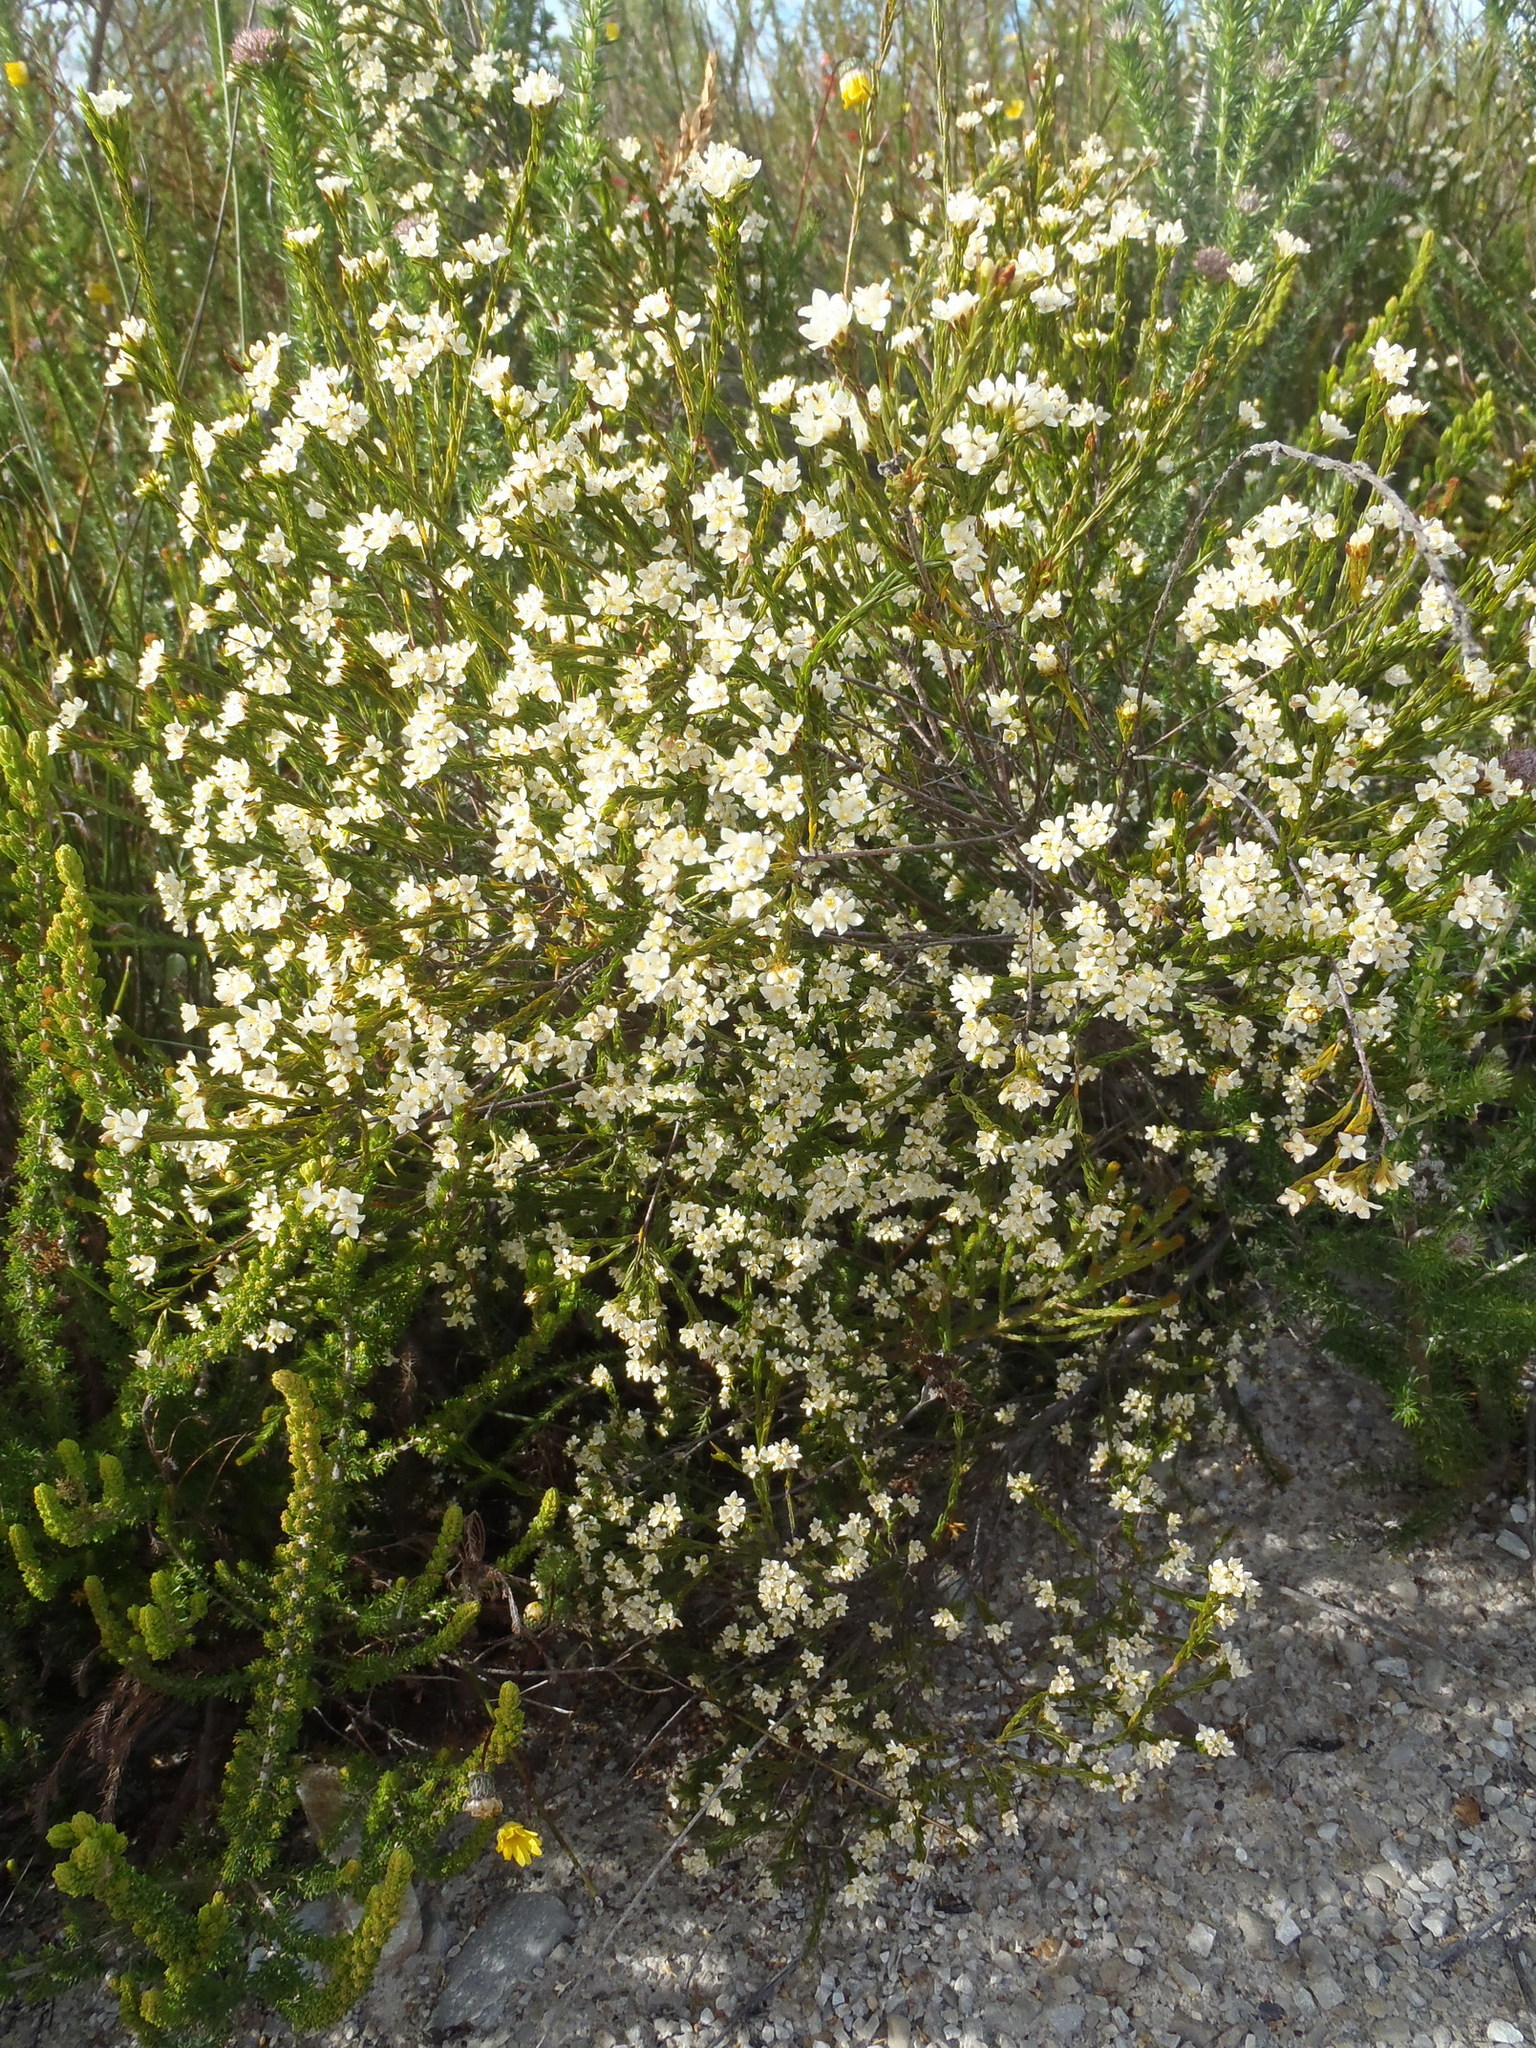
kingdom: Plantae
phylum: Tracheophyta
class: Magnoliopsida
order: Malvales
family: Thymelaeaceae
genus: Lachnaea
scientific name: Lachnaea diosmoides
